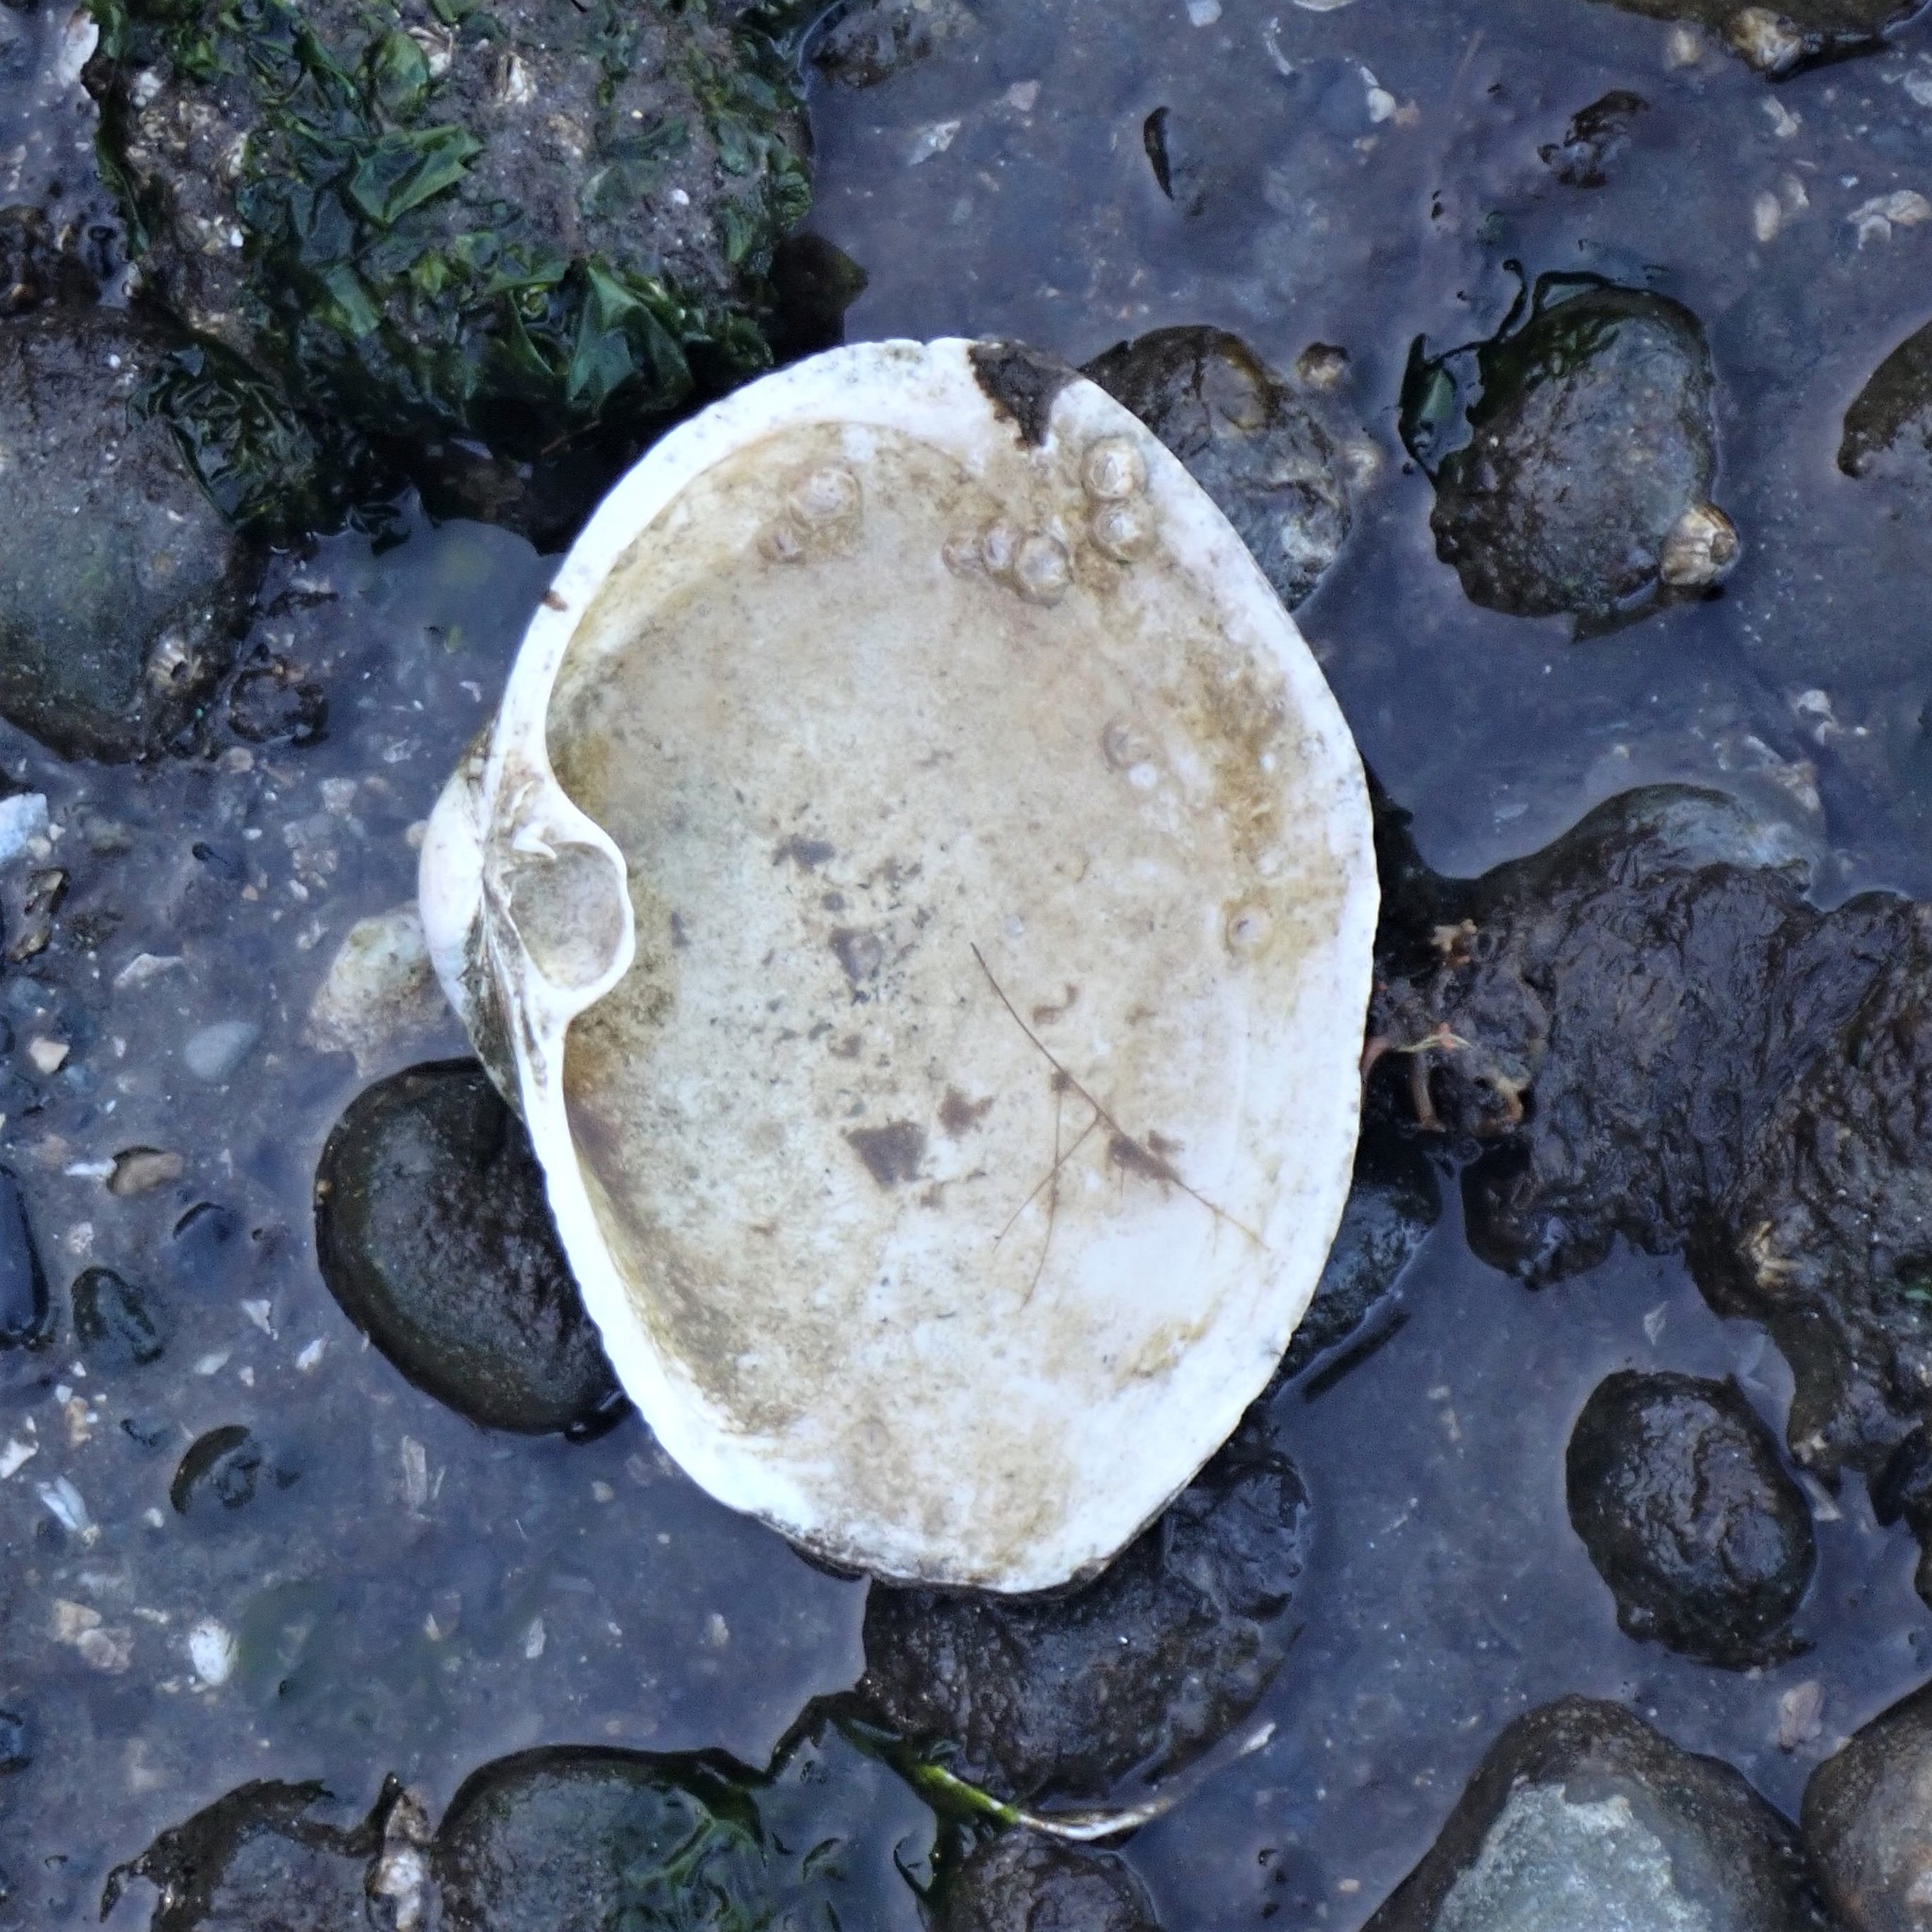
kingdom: Animalia
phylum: Mollusca
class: Bivalvia
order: Venerida
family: Mactridae
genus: Tresus
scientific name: Tresus capax
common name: Fat gaper
